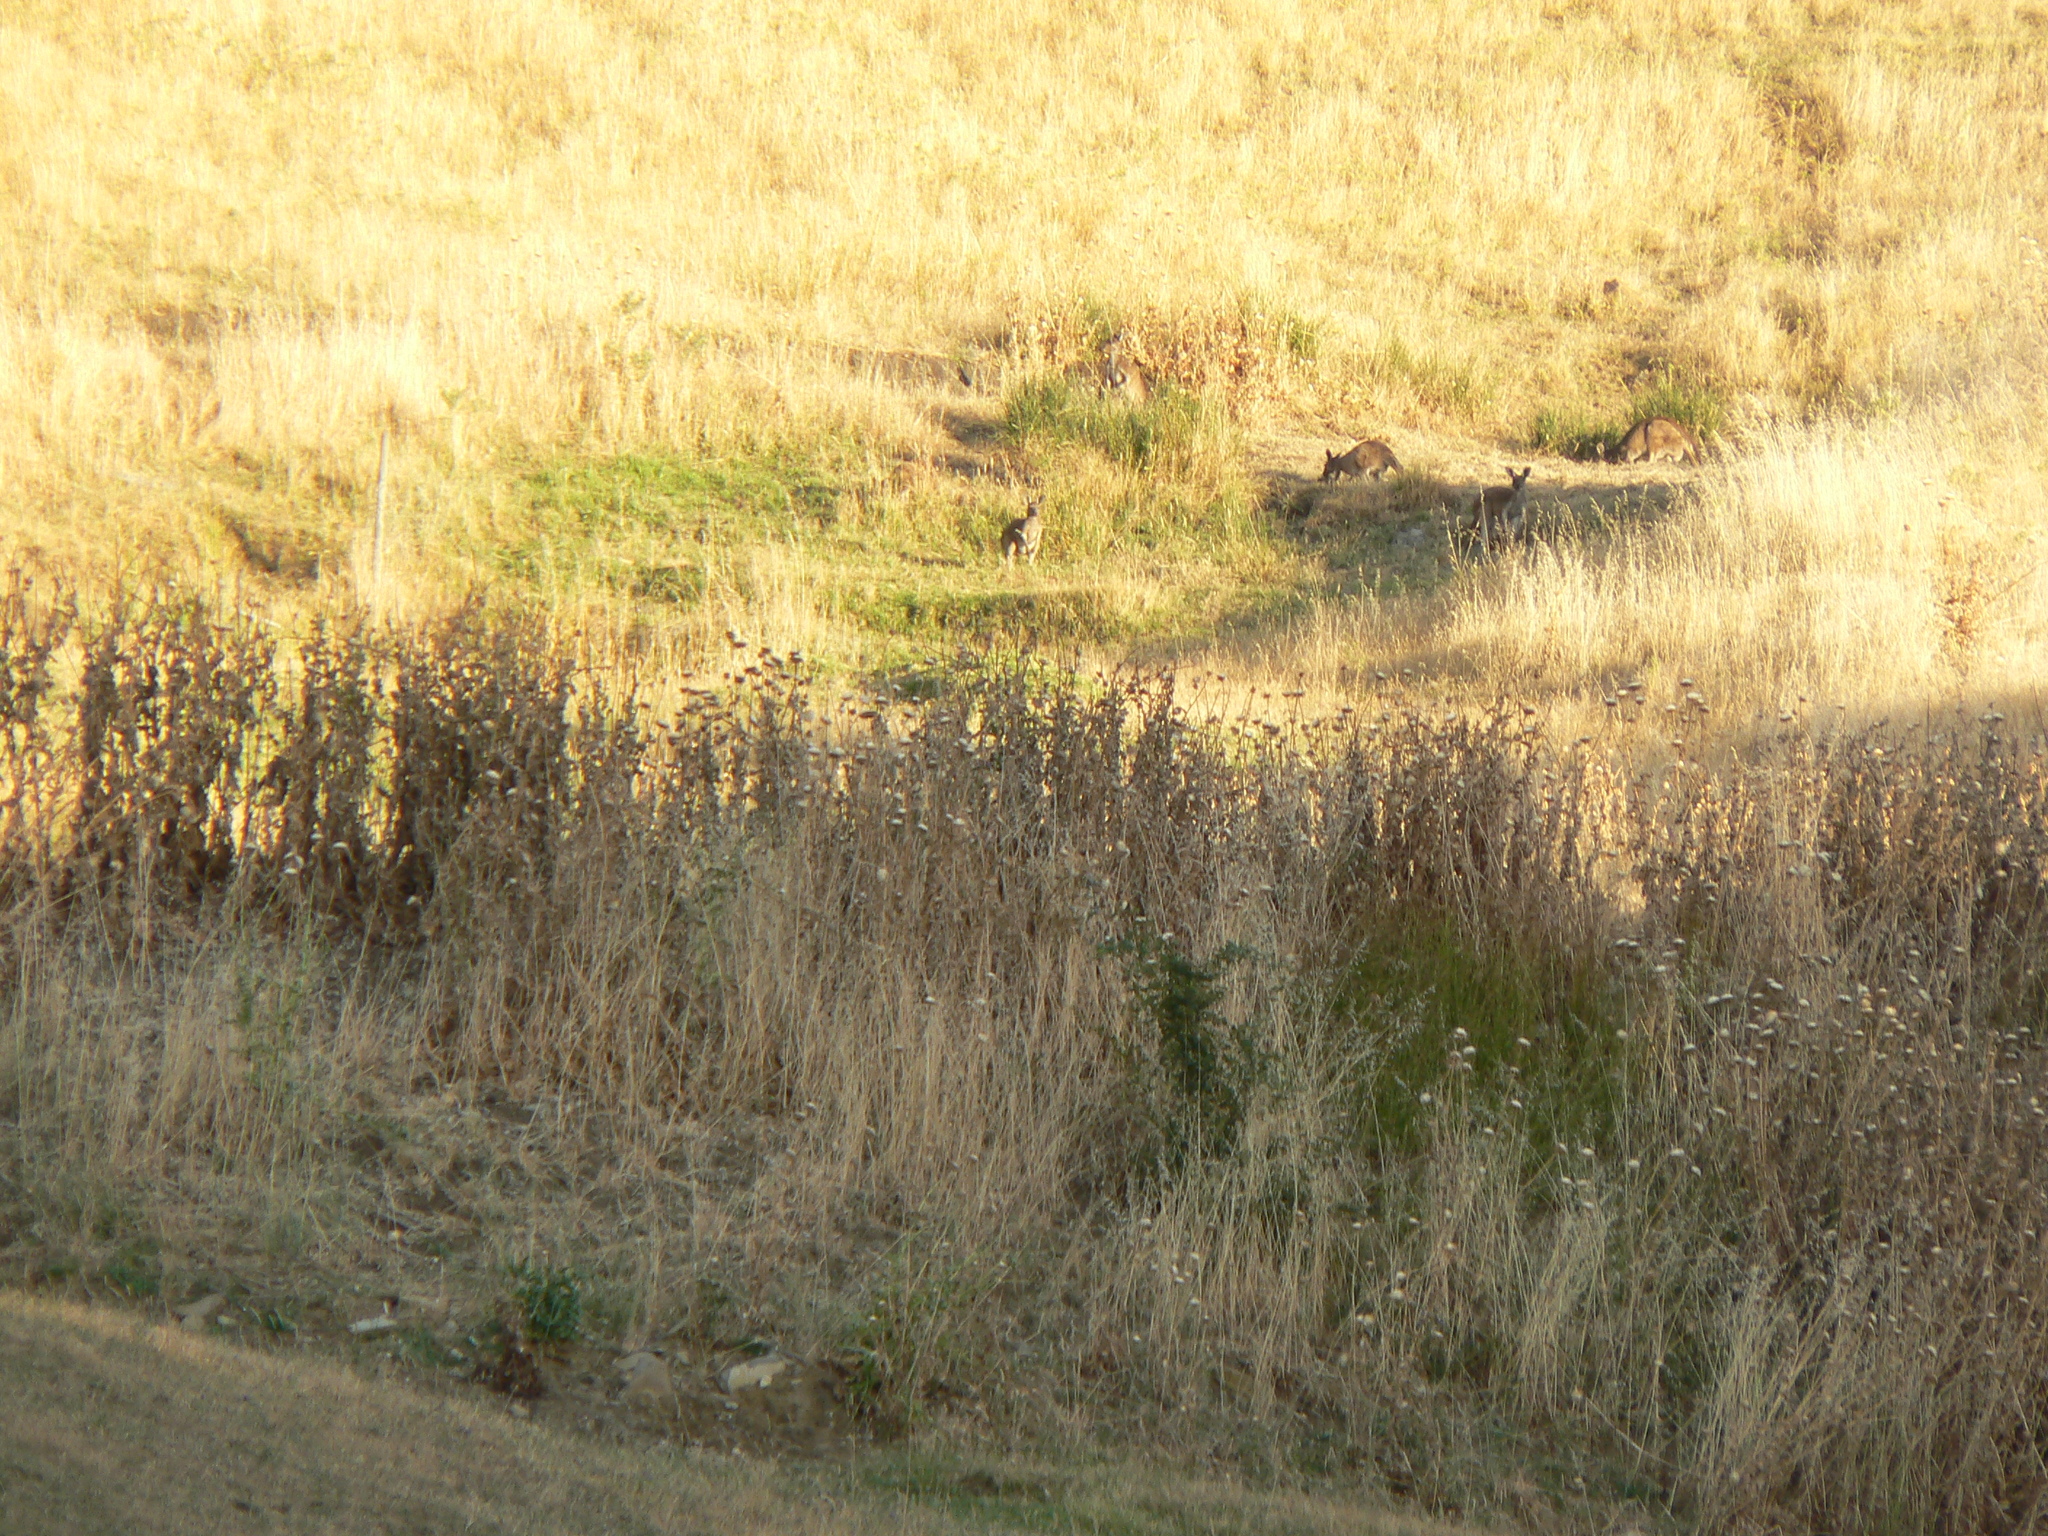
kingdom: Animalia
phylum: Chordata
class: Mammalia
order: Diprotodontia
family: Macropodidae
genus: Macropus
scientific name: Macropus fuliginosus
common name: Western grey kangaroo
